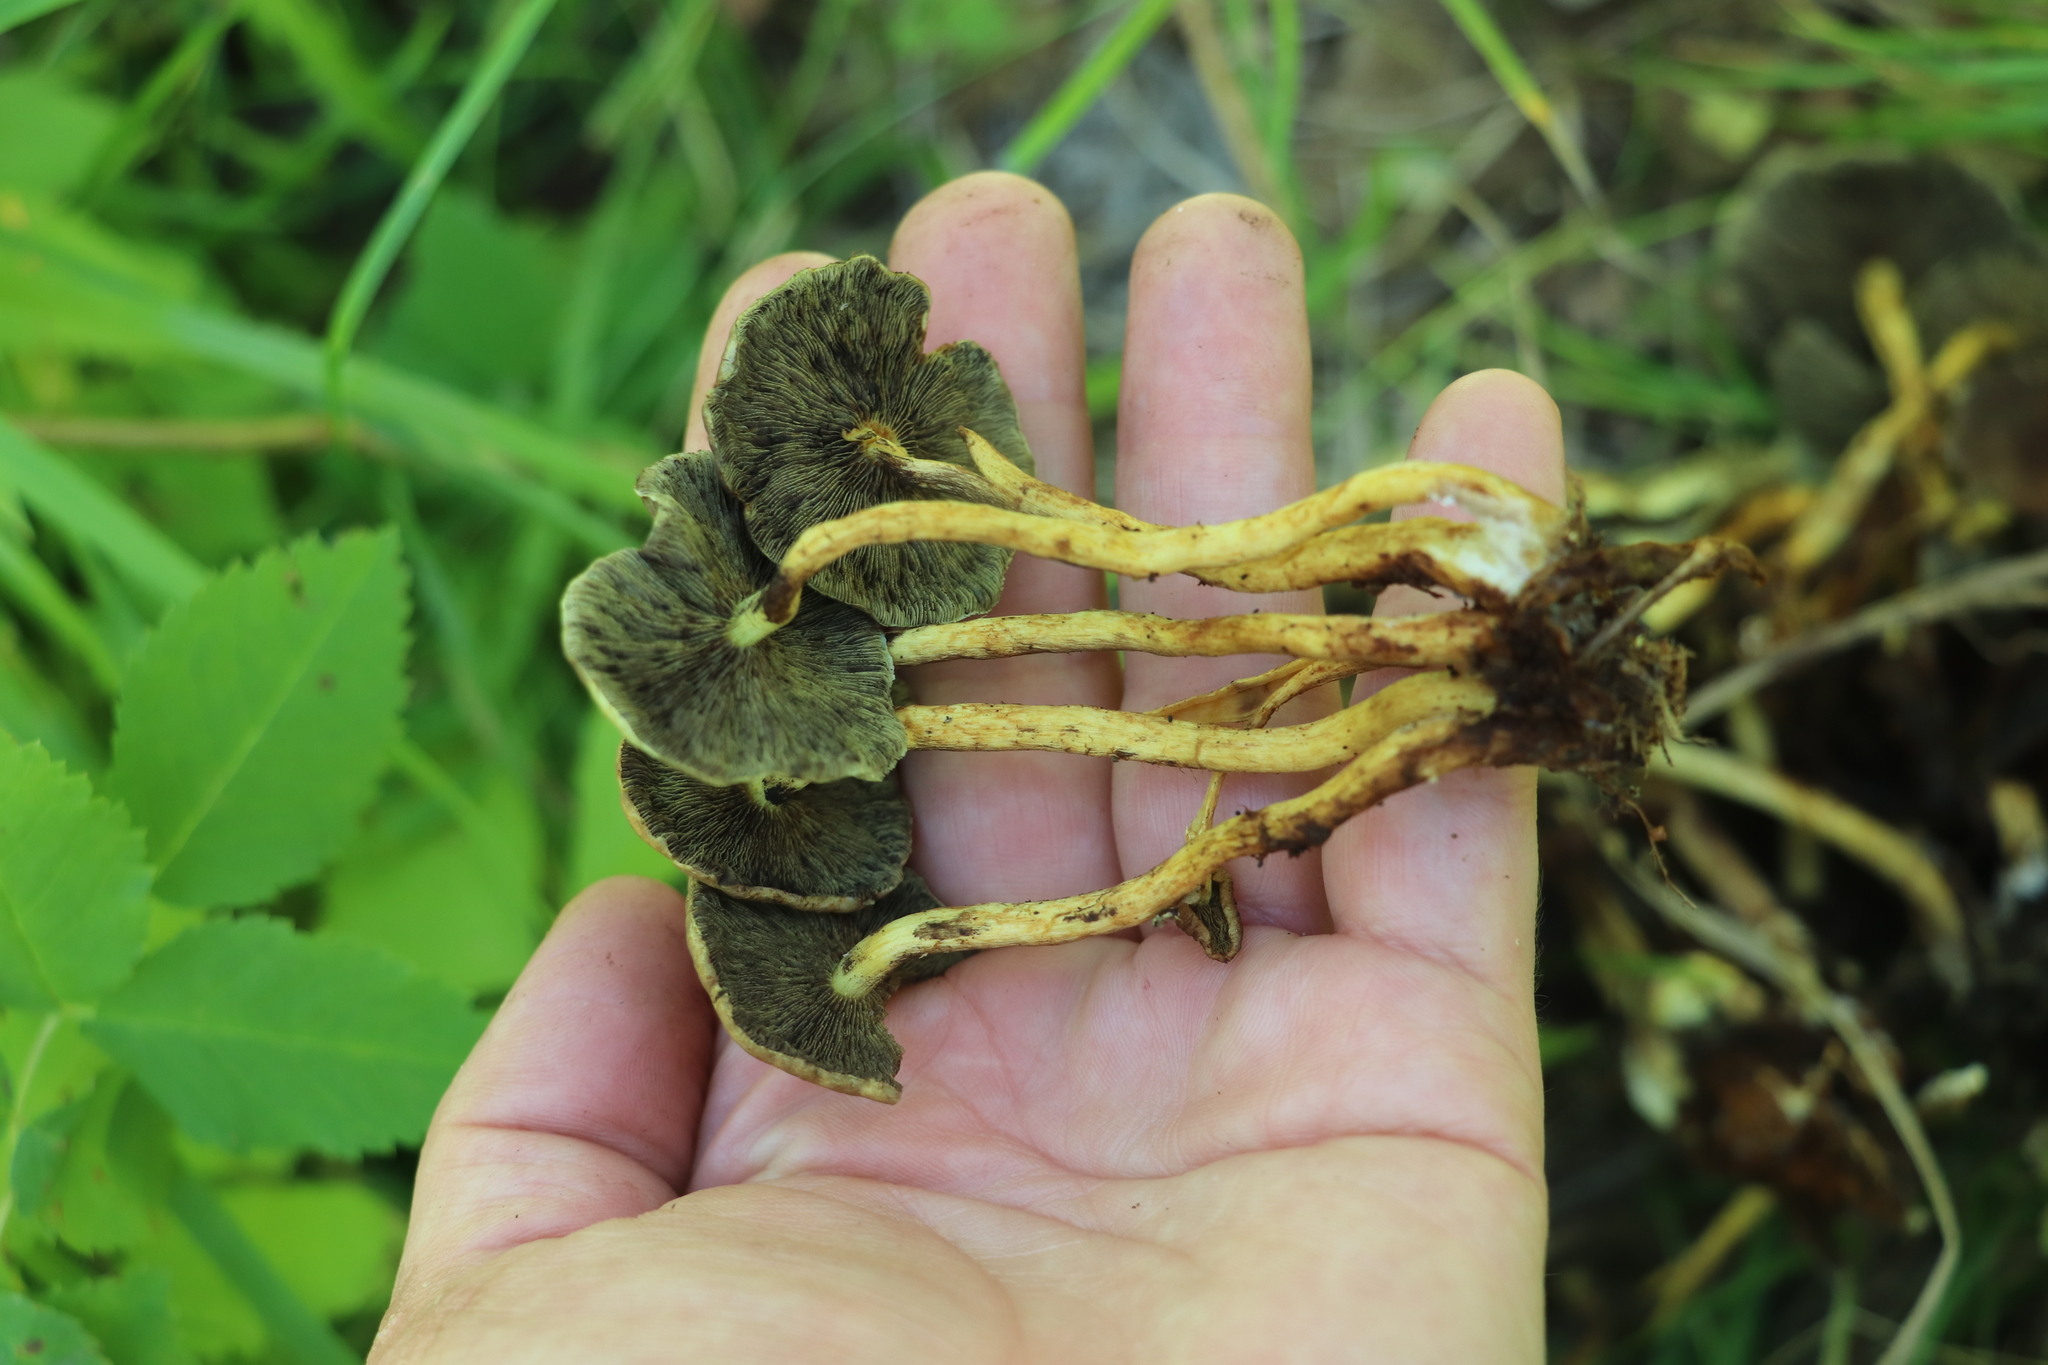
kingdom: Fungi
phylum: Basidiomycota
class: Agaricomycetes
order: Agaricales
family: Strophariaceae
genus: Hypholoma
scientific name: Hypholoma fasciculare
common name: Sulphur tuft
